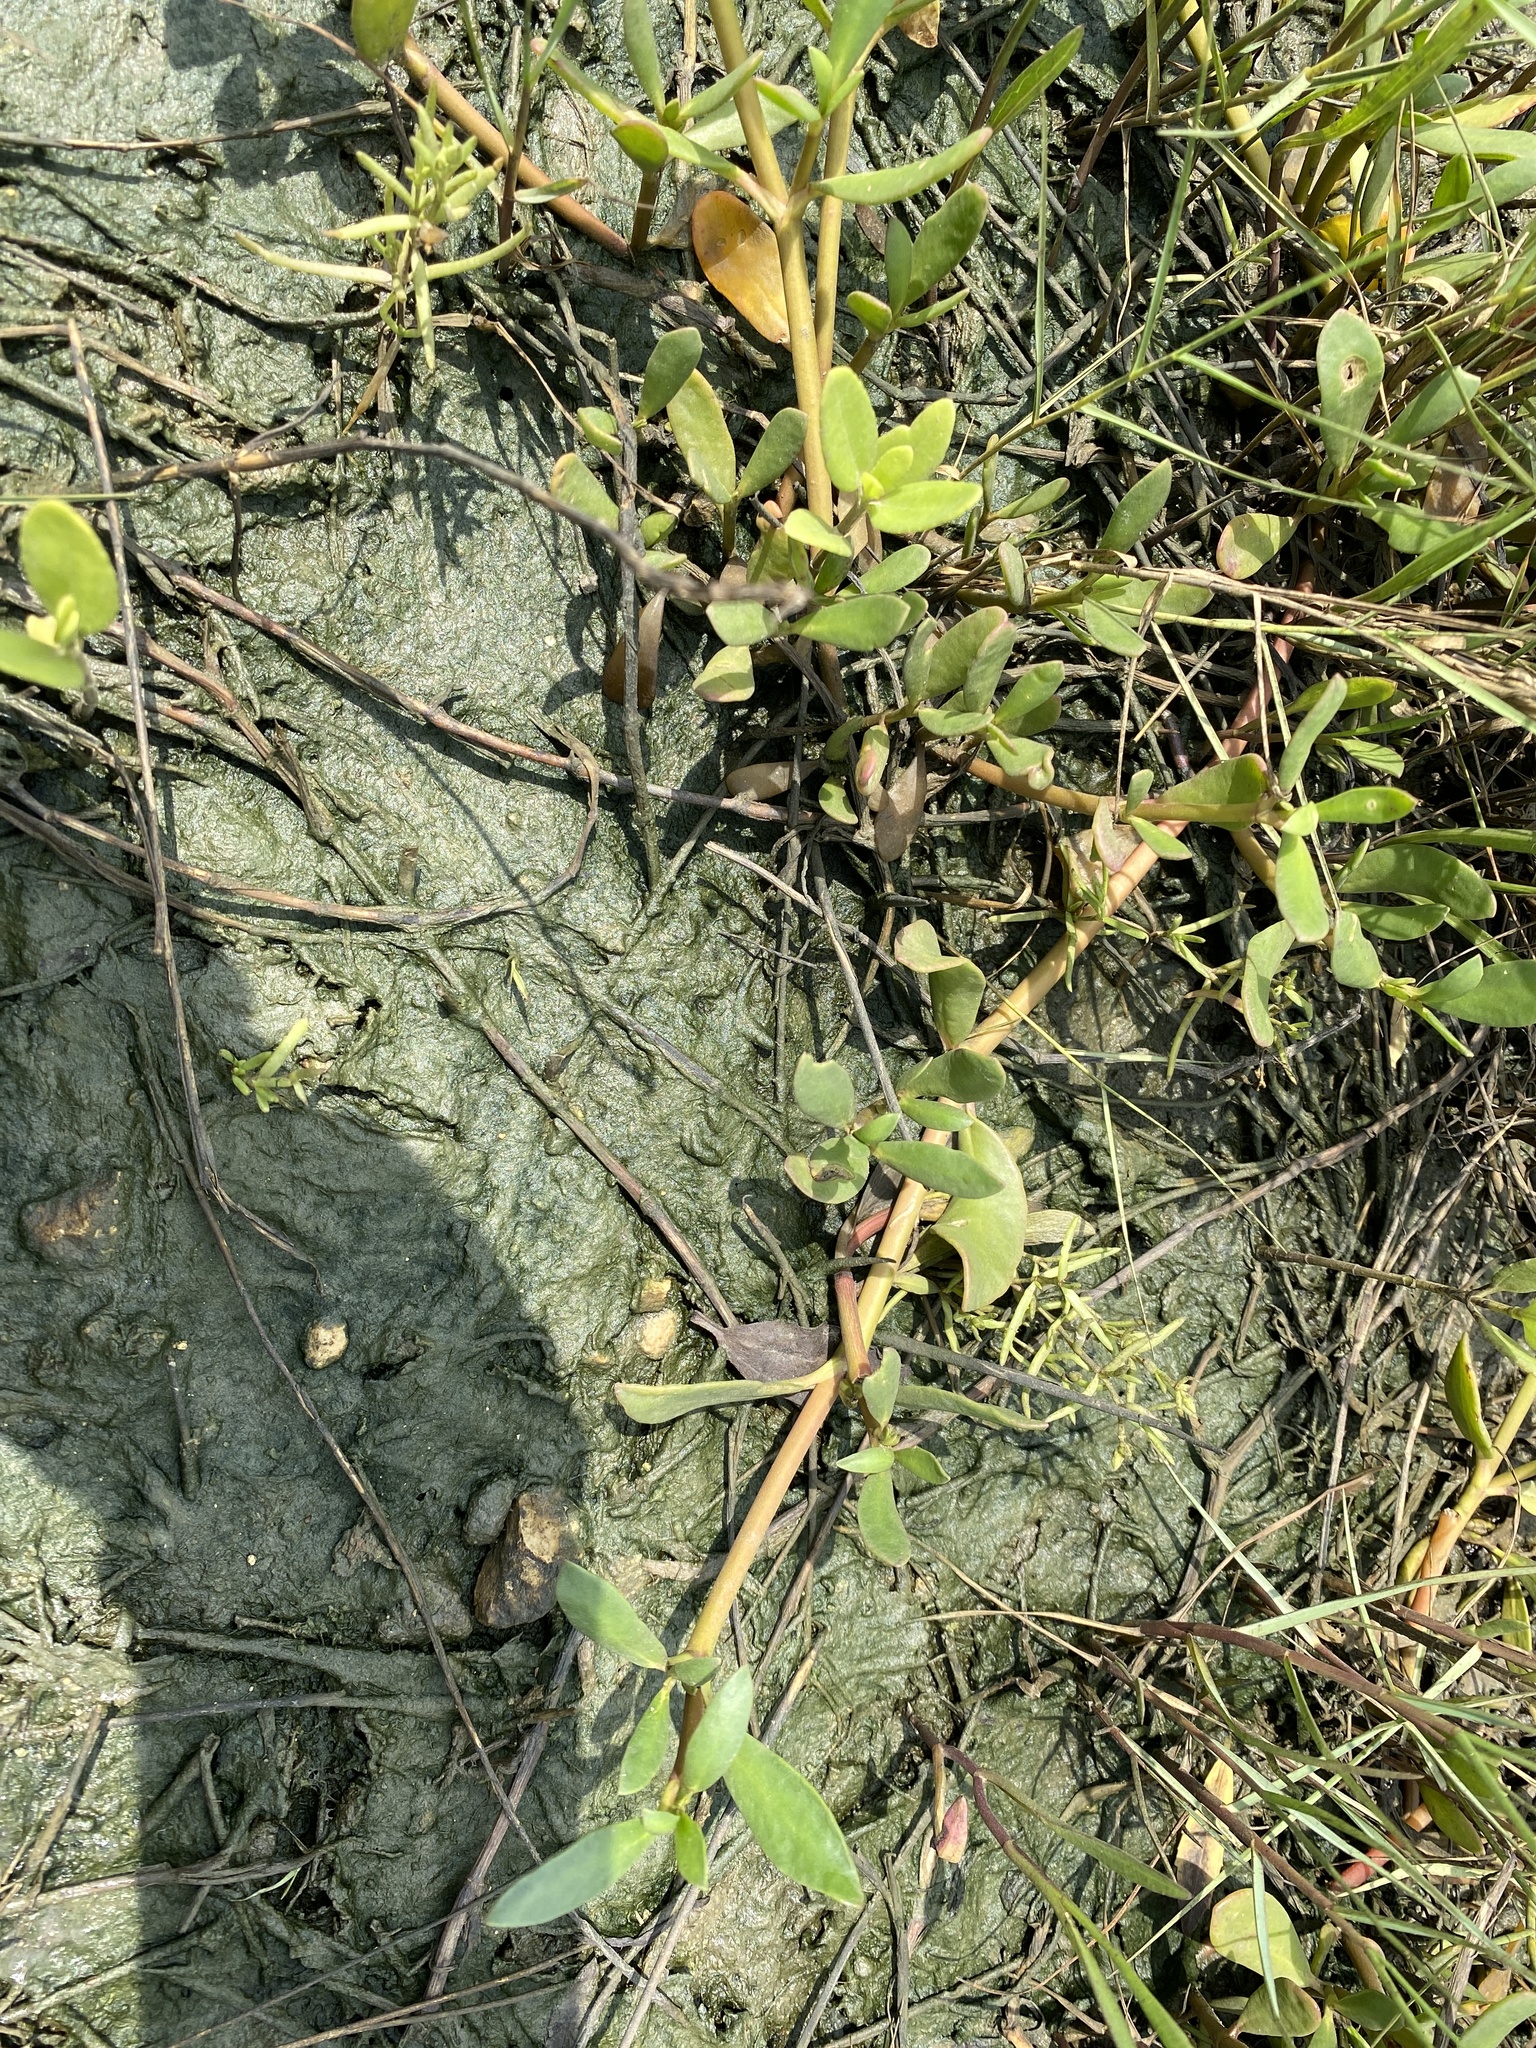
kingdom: Plantae
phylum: Tracheophyta
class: Magnoliopsida
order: Caryophyllales
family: Aizoaceae
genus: Sesuvium
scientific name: Sesuvium portulacastrum
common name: Sea-purslane
